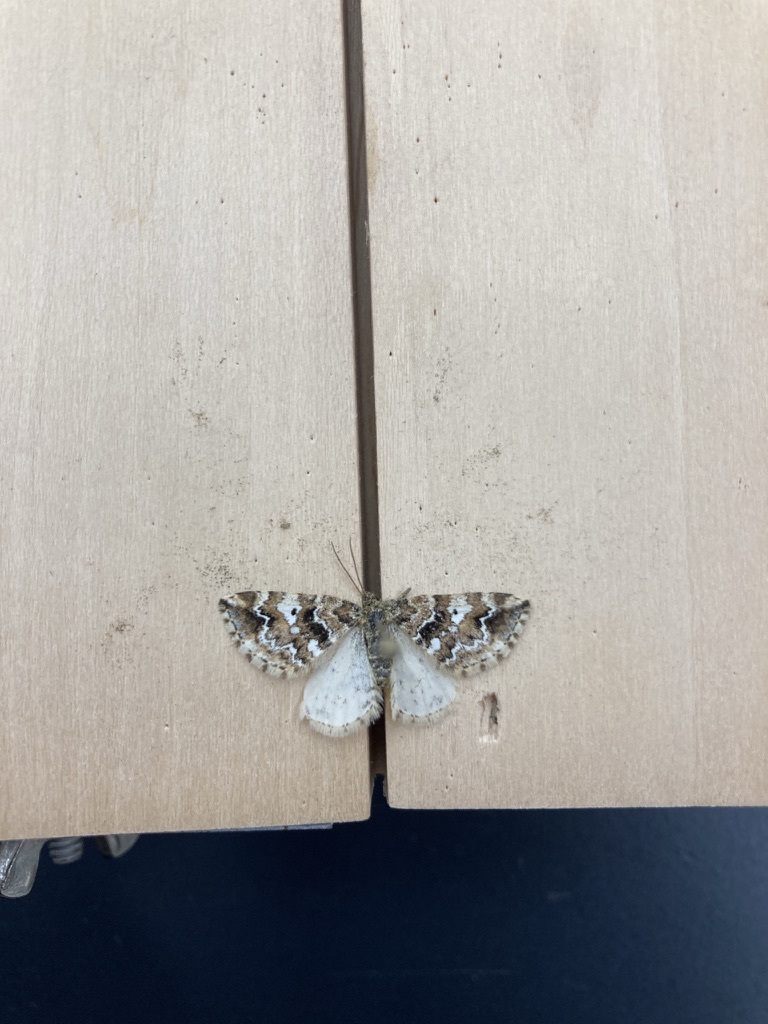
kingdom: Animalia
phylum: Arthropoda
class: Insecta
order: Lepidoptera
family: Geometridae
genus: Enchoria
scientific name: Enchoria lacteata
